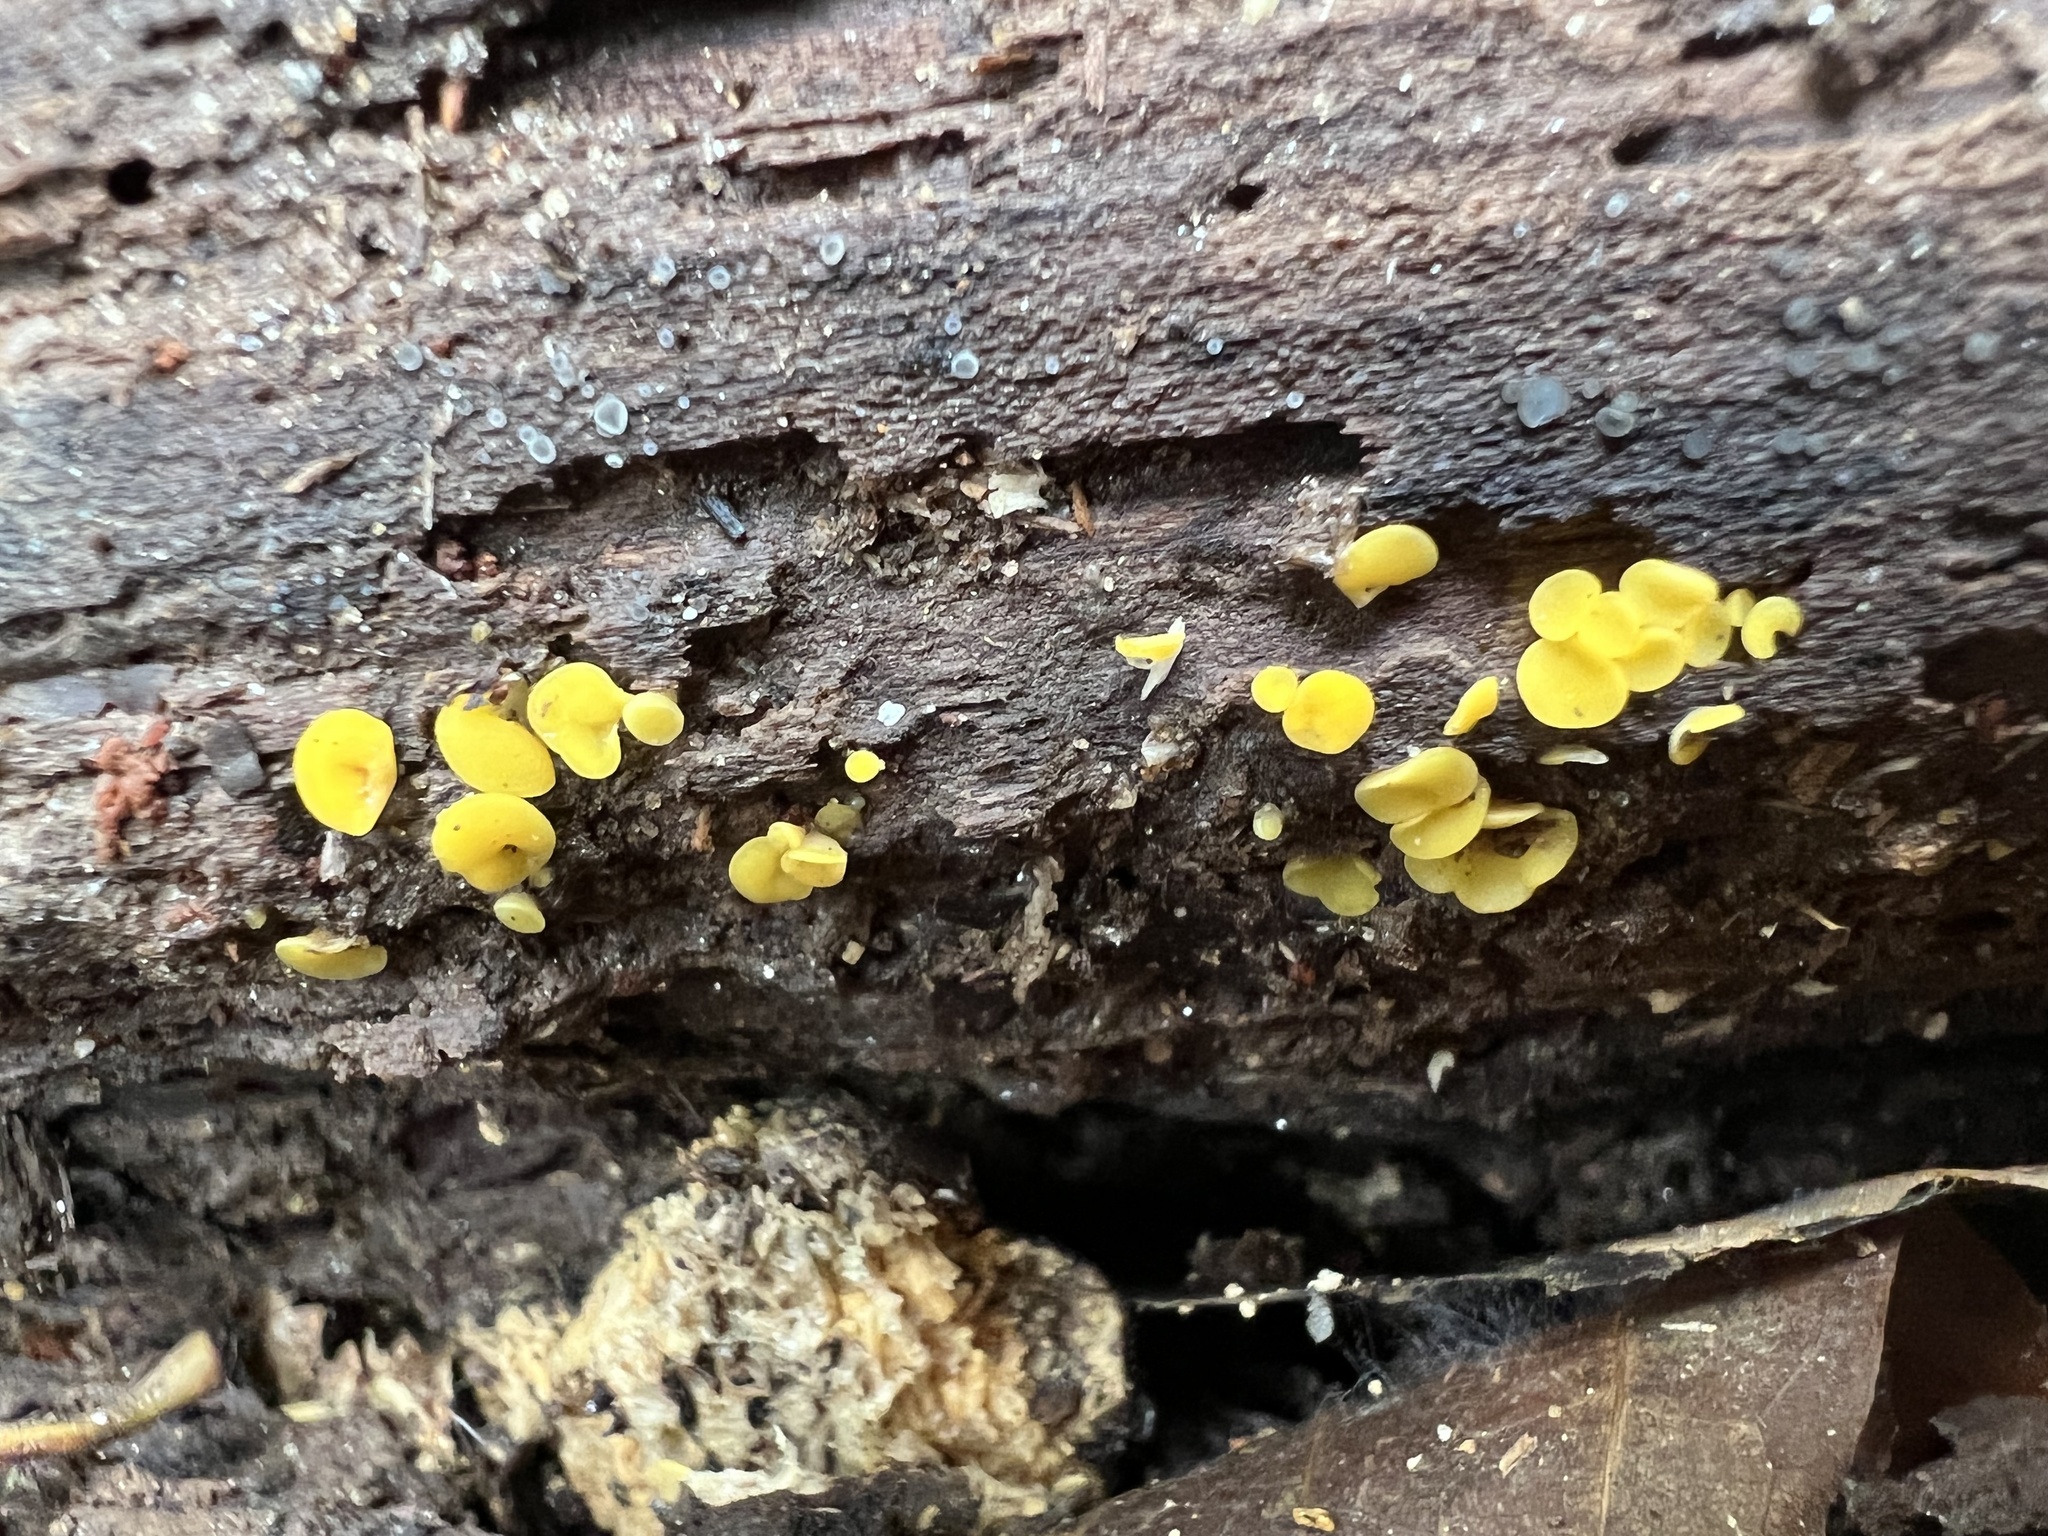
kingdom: Fungi
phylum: Ascomycota
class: Leotiomycetes
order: Helotiales
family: Pezizellaceae
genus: Calycina
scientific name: Calycina citrina
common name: Yellow fairy cups
